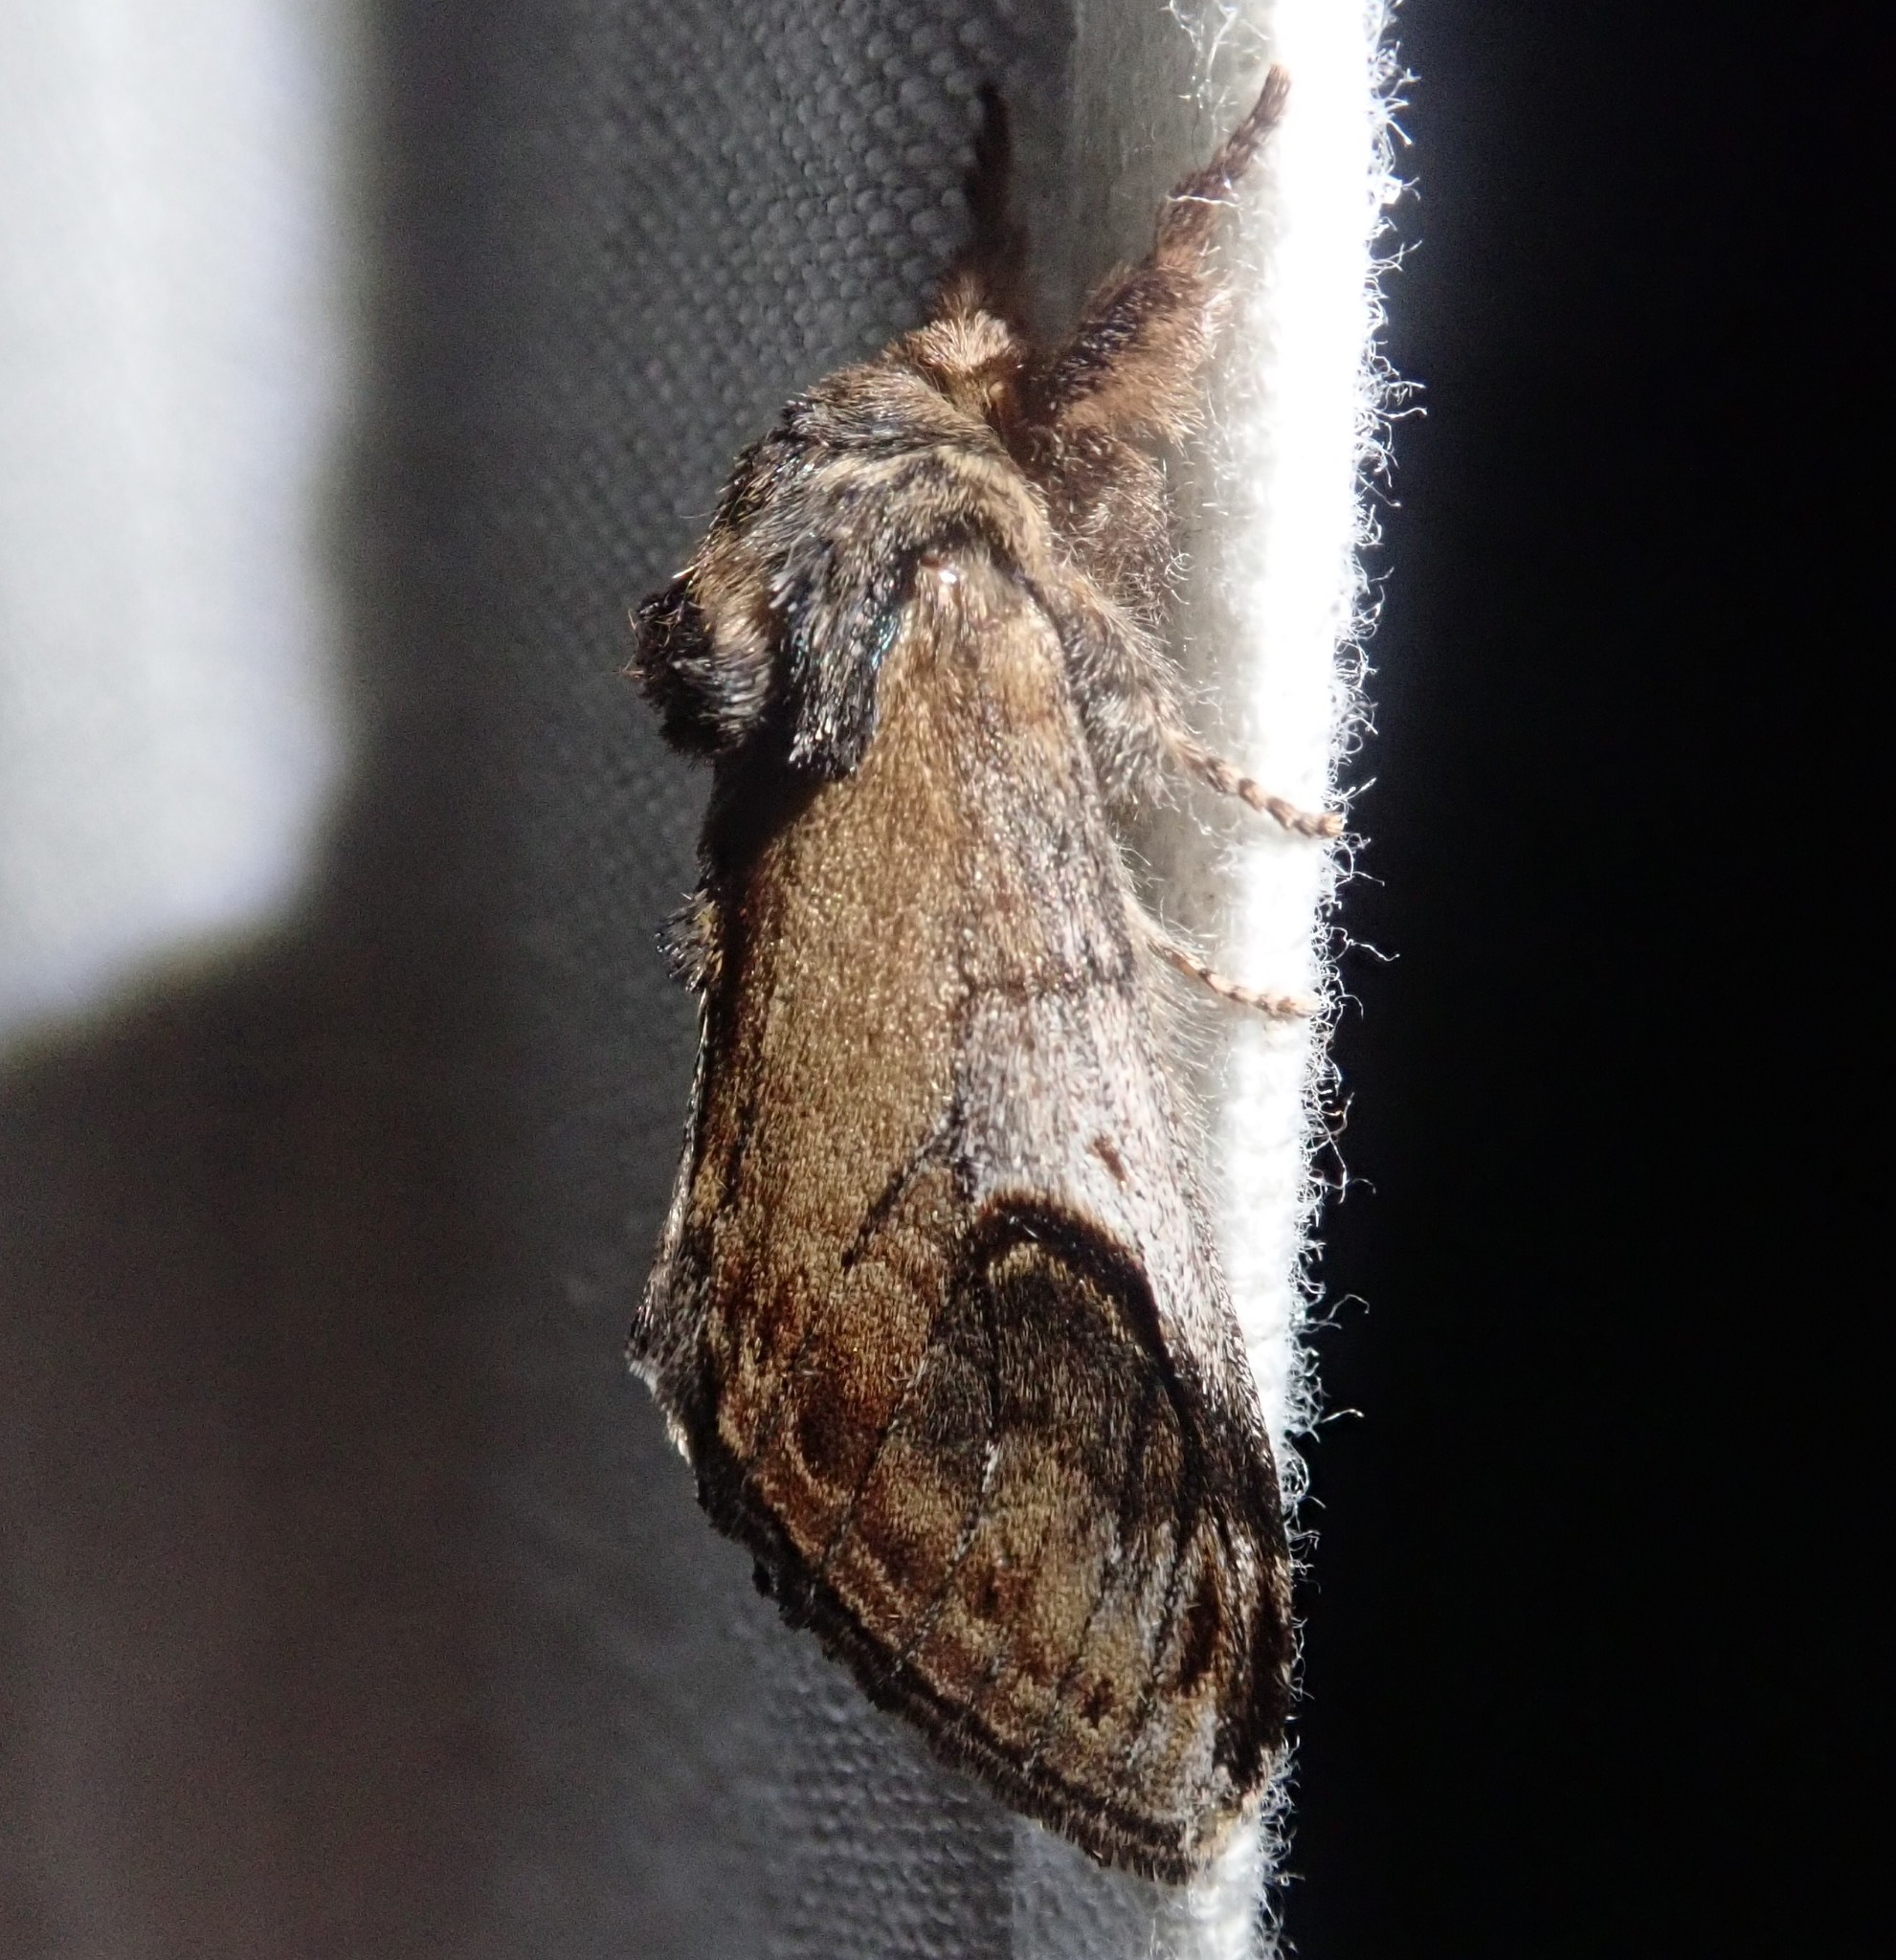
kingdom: Animalia
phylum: Arthropoda
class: Insecta
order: Lepidoptera
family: Notodontidae
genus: Notodonta
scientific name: Notodonta ziczac
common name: Pebble prominent
